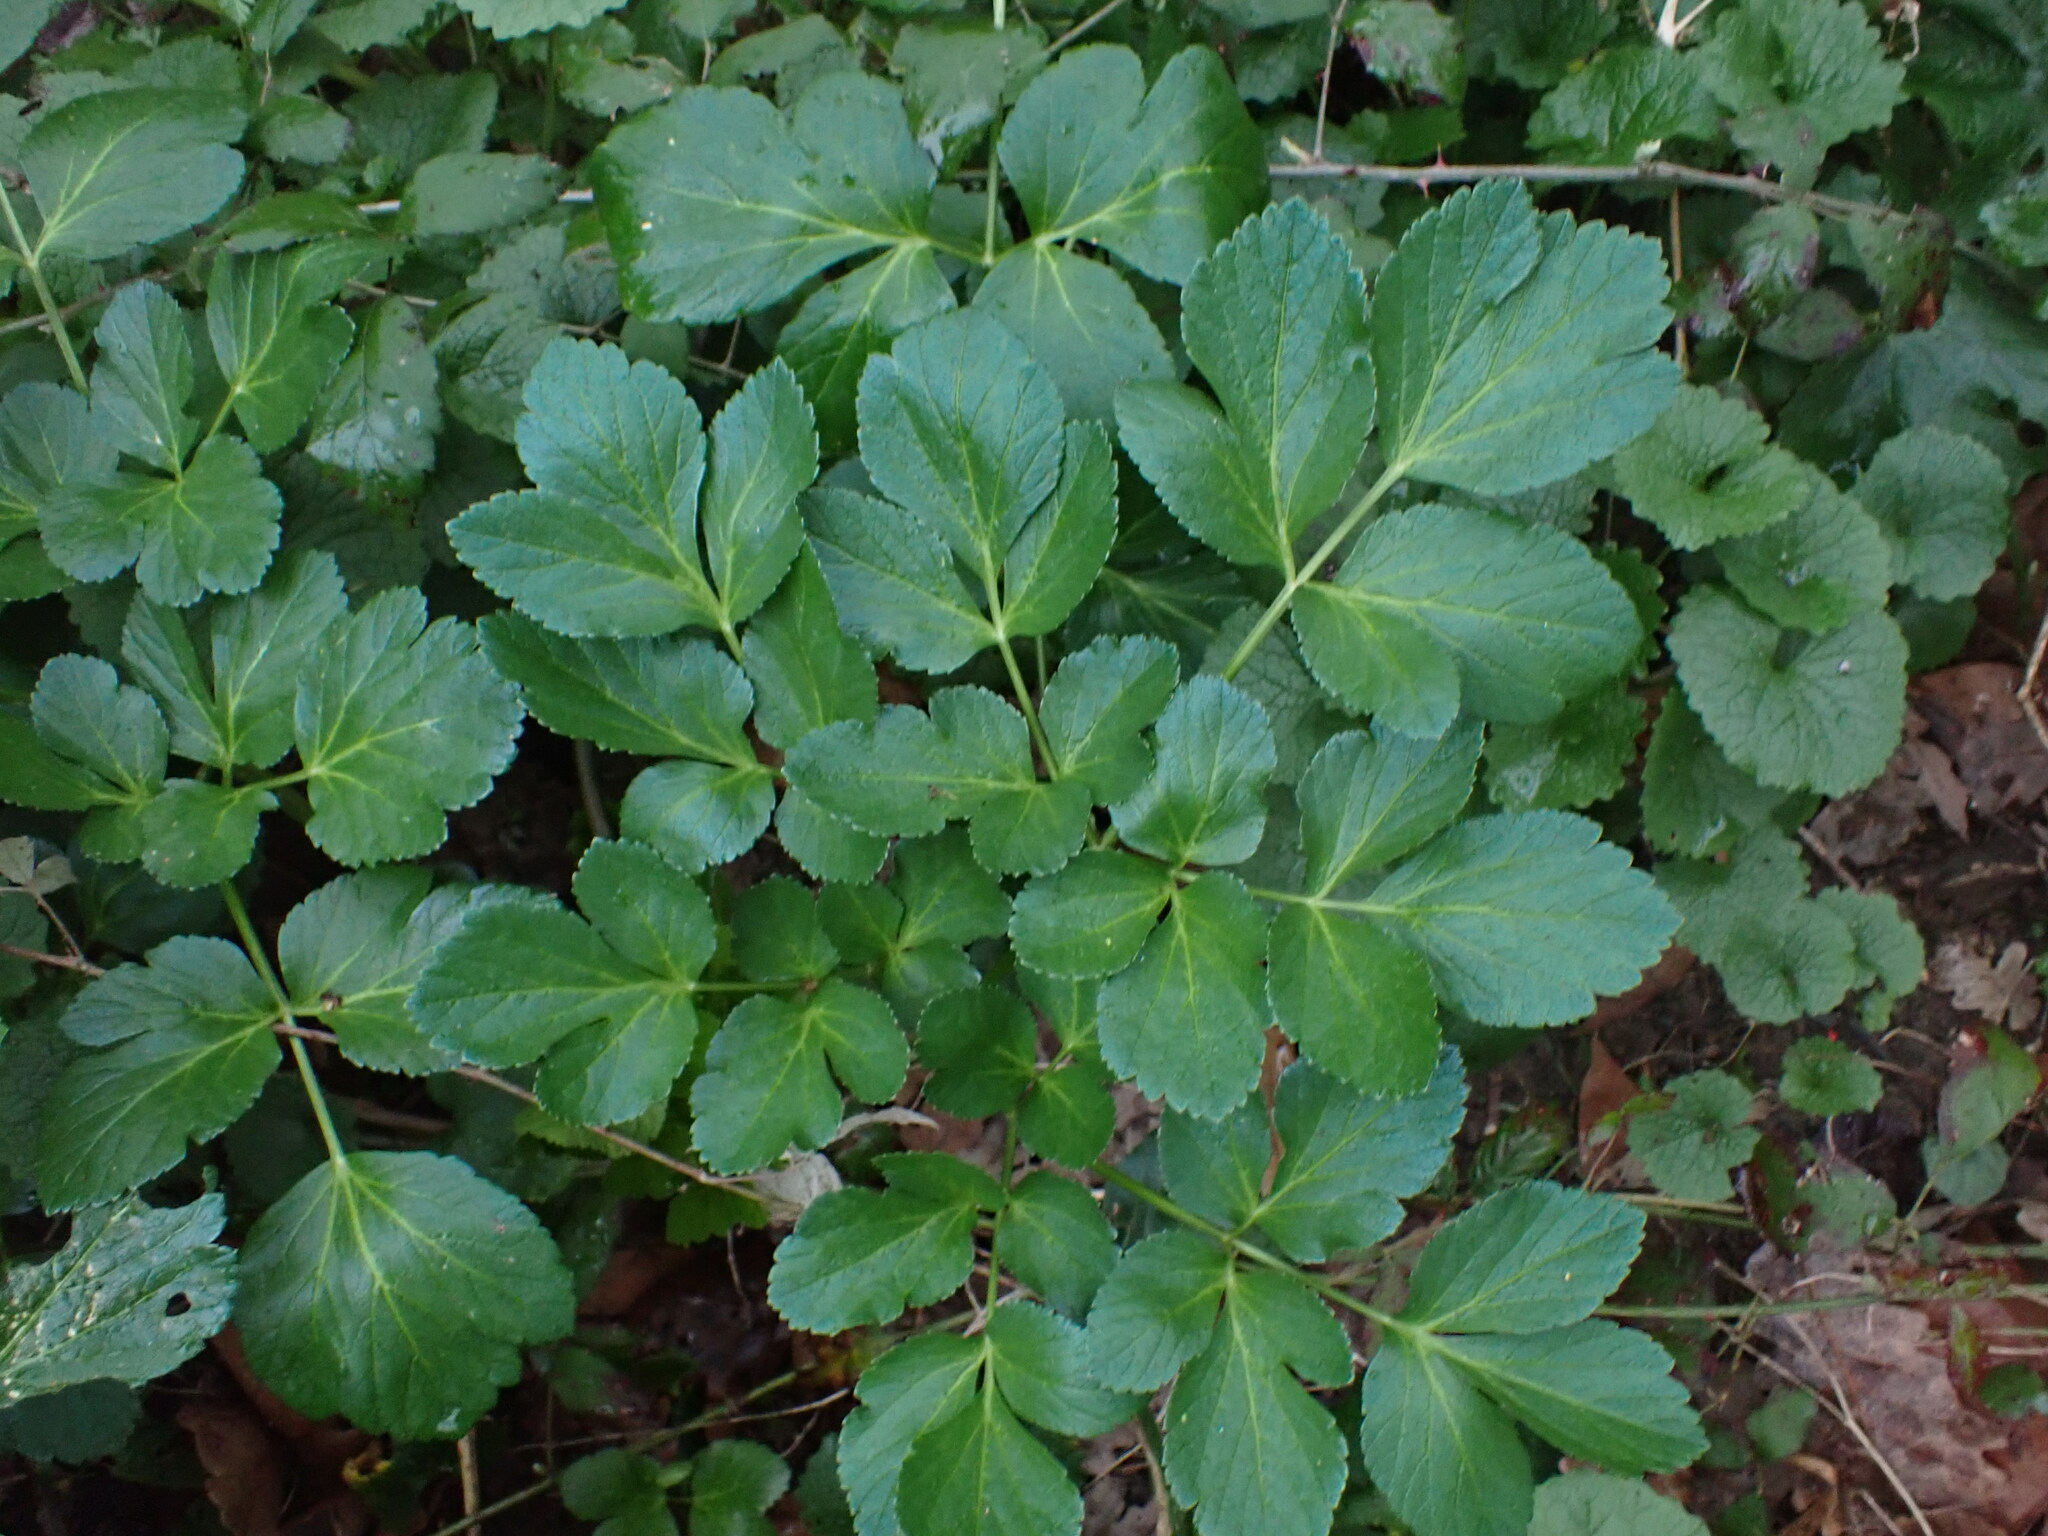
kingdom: Plantae
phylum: Tracheophyta
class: Magnoliopsida
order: Apiales
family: Apiaceae
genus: Smyrnium
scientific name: Smyrnium olusatrum
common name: Alexanders
